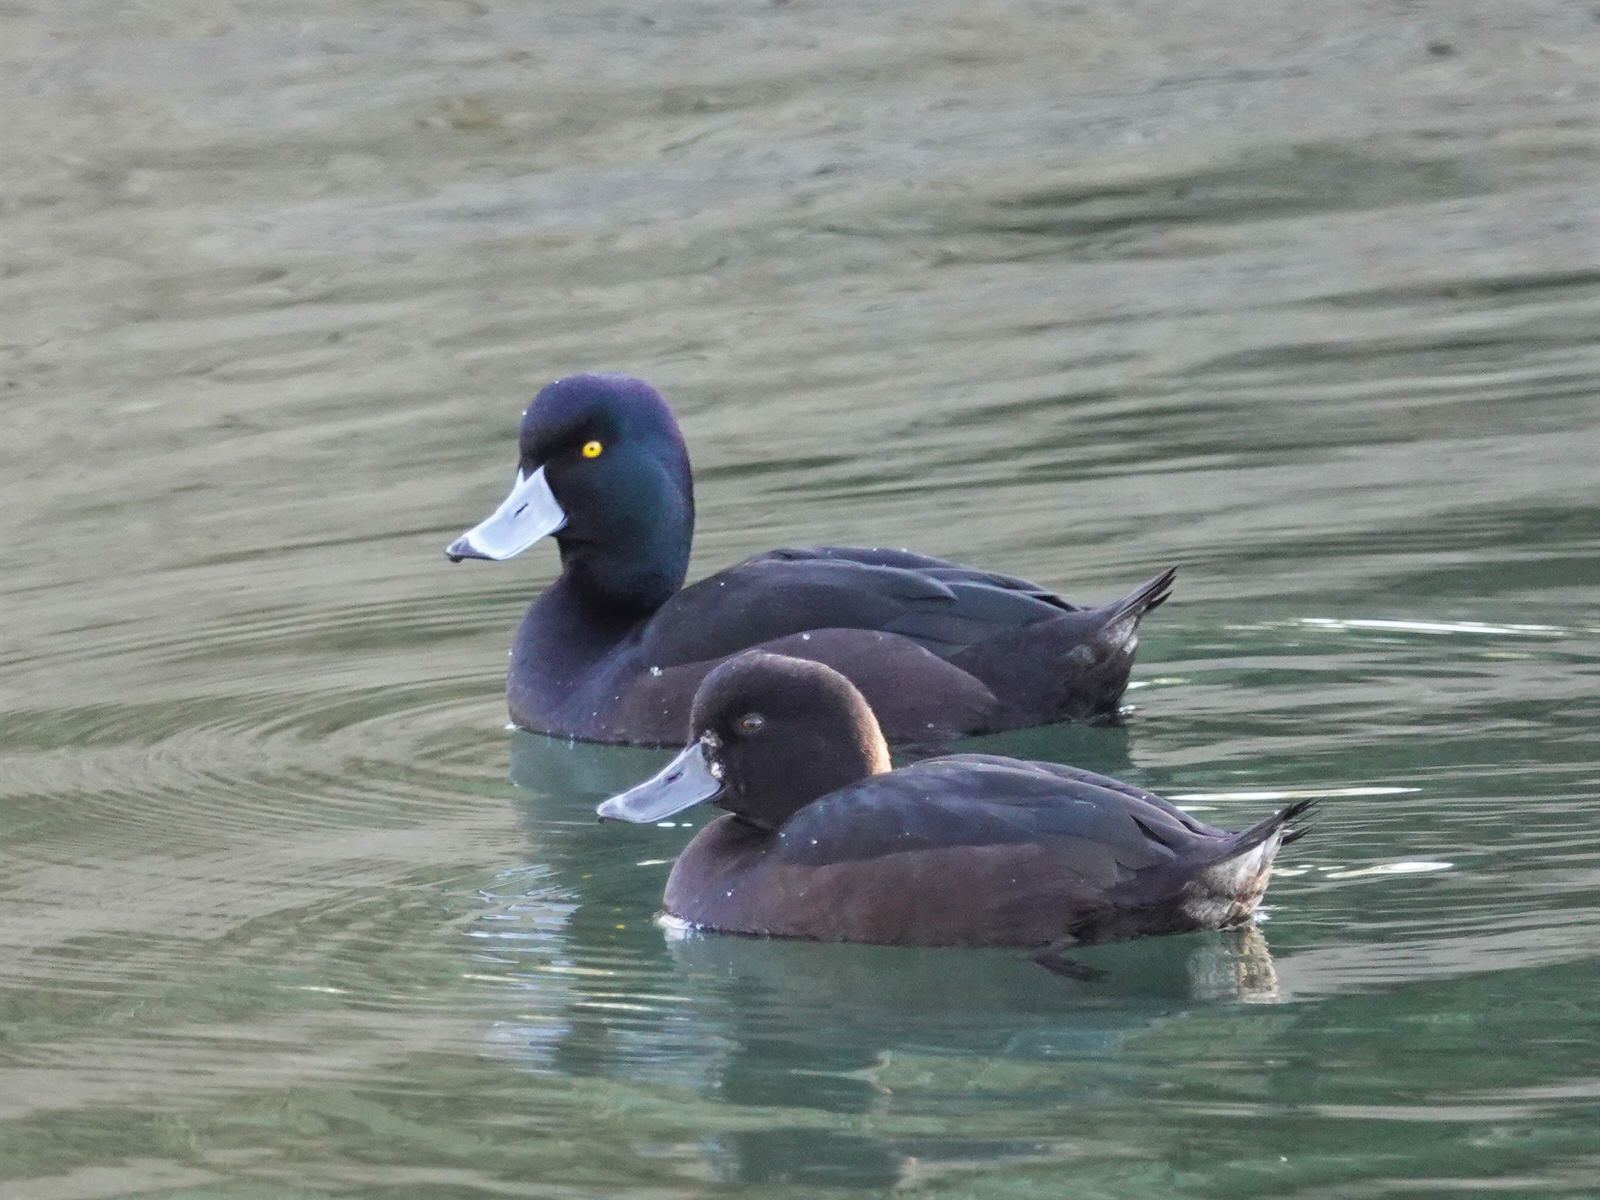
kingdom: Animalia
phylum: Chordata
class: Aves
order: Anseriformes
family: Anatidae
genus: Aythya
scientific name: Aythya novaeseelandiae
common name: New zealand scaup
